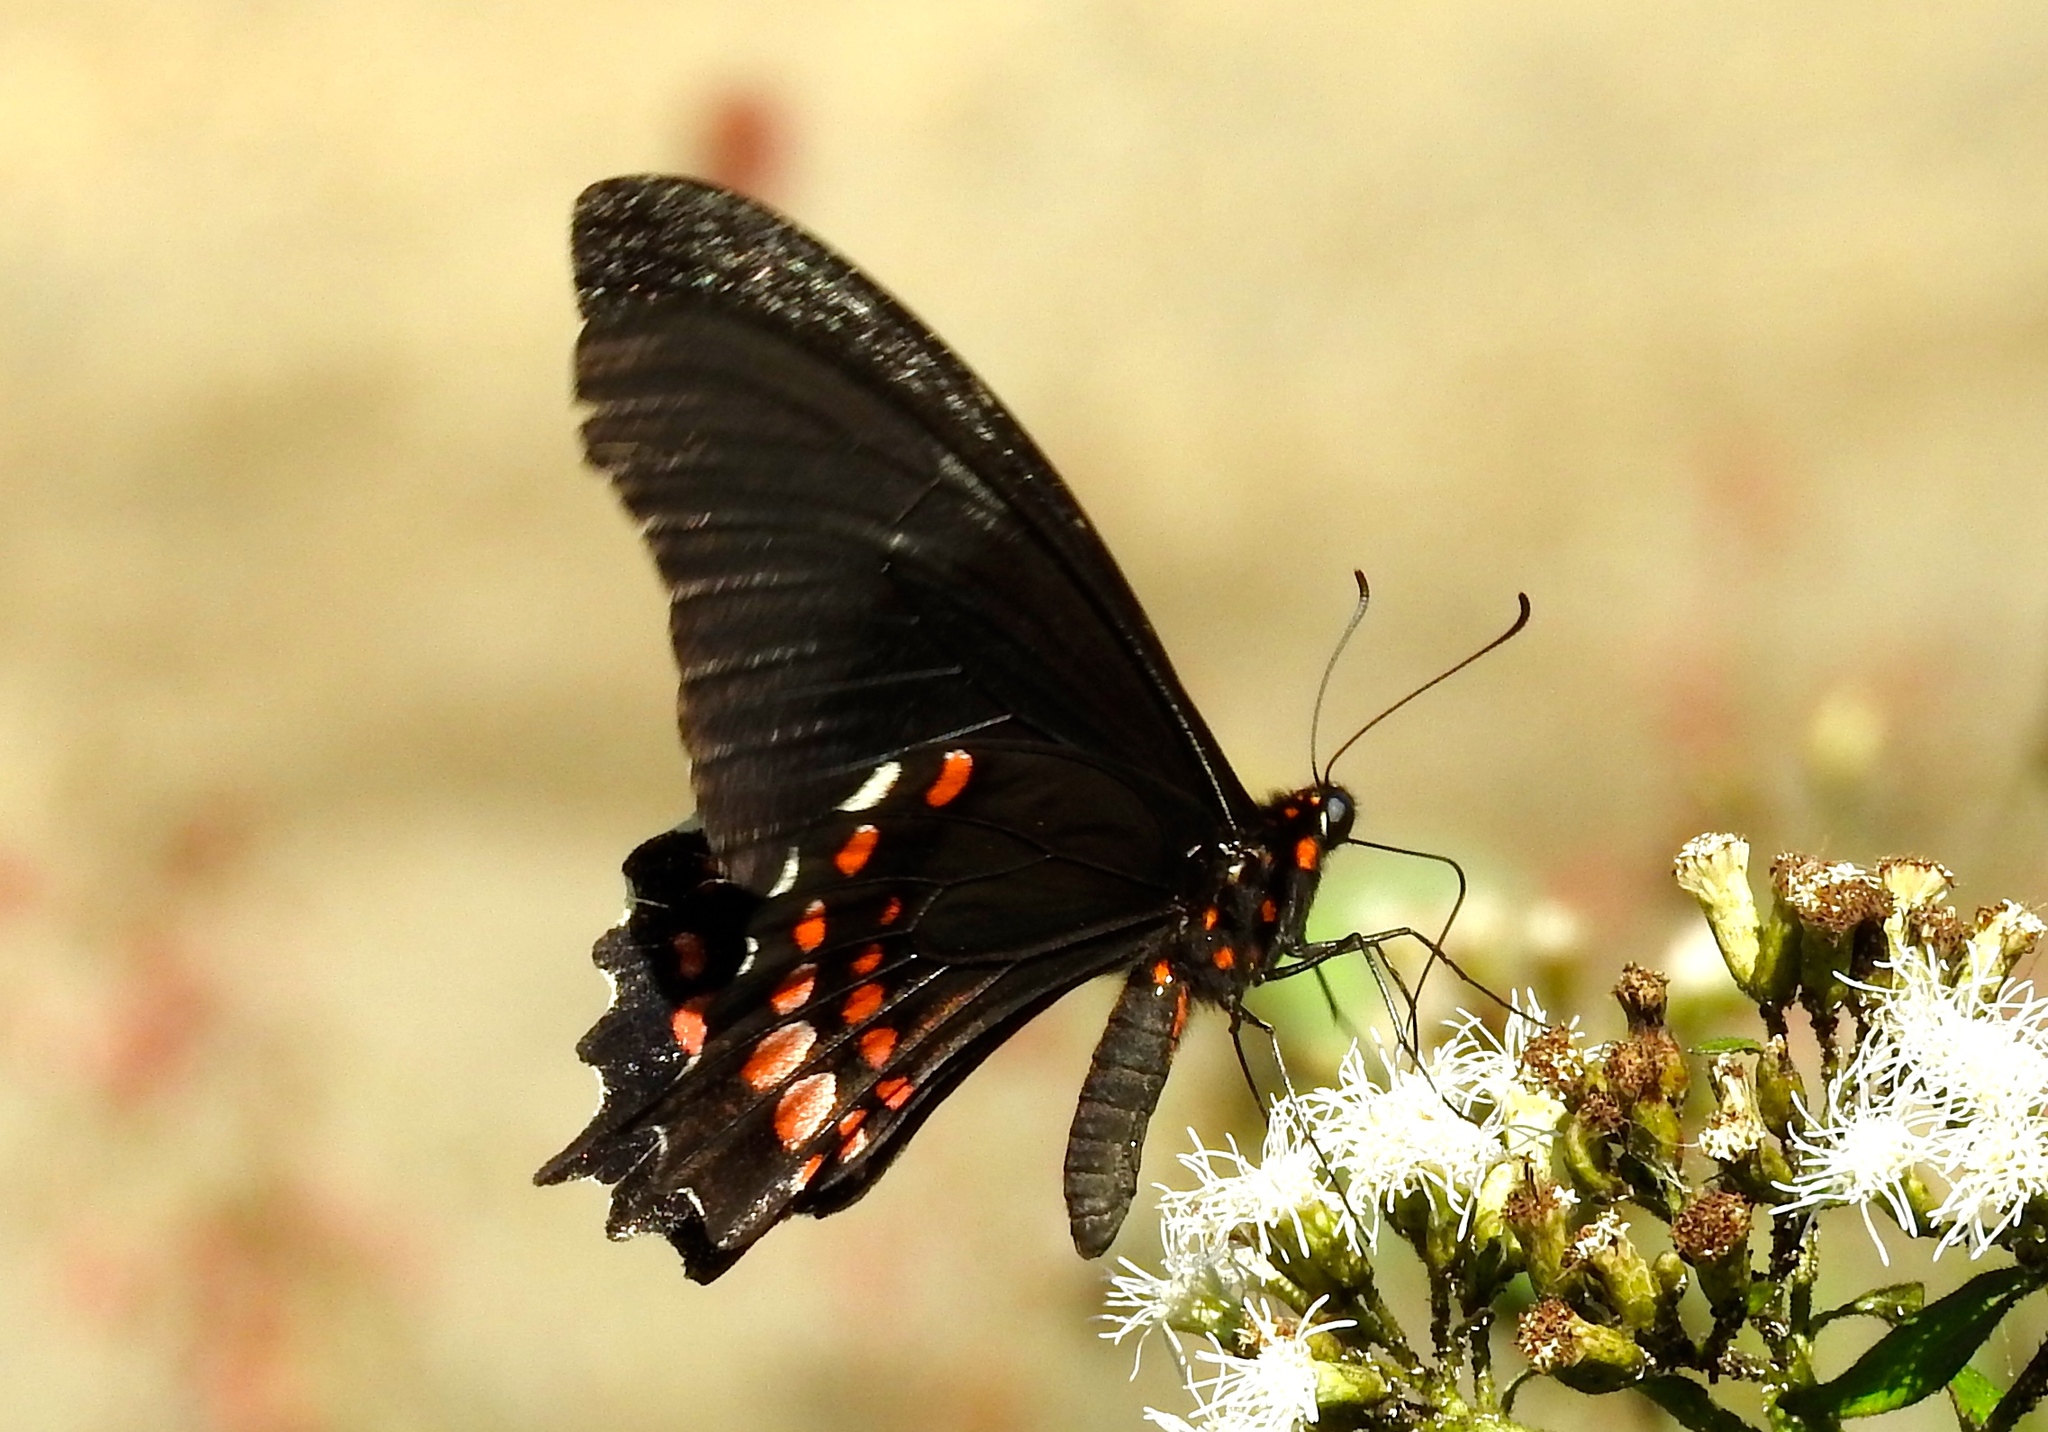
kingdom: Animalia
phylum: Arthropoda
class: Insecta
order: Lepidoptera
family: Papilionidae
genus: Heraclides
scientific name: Heraclides
